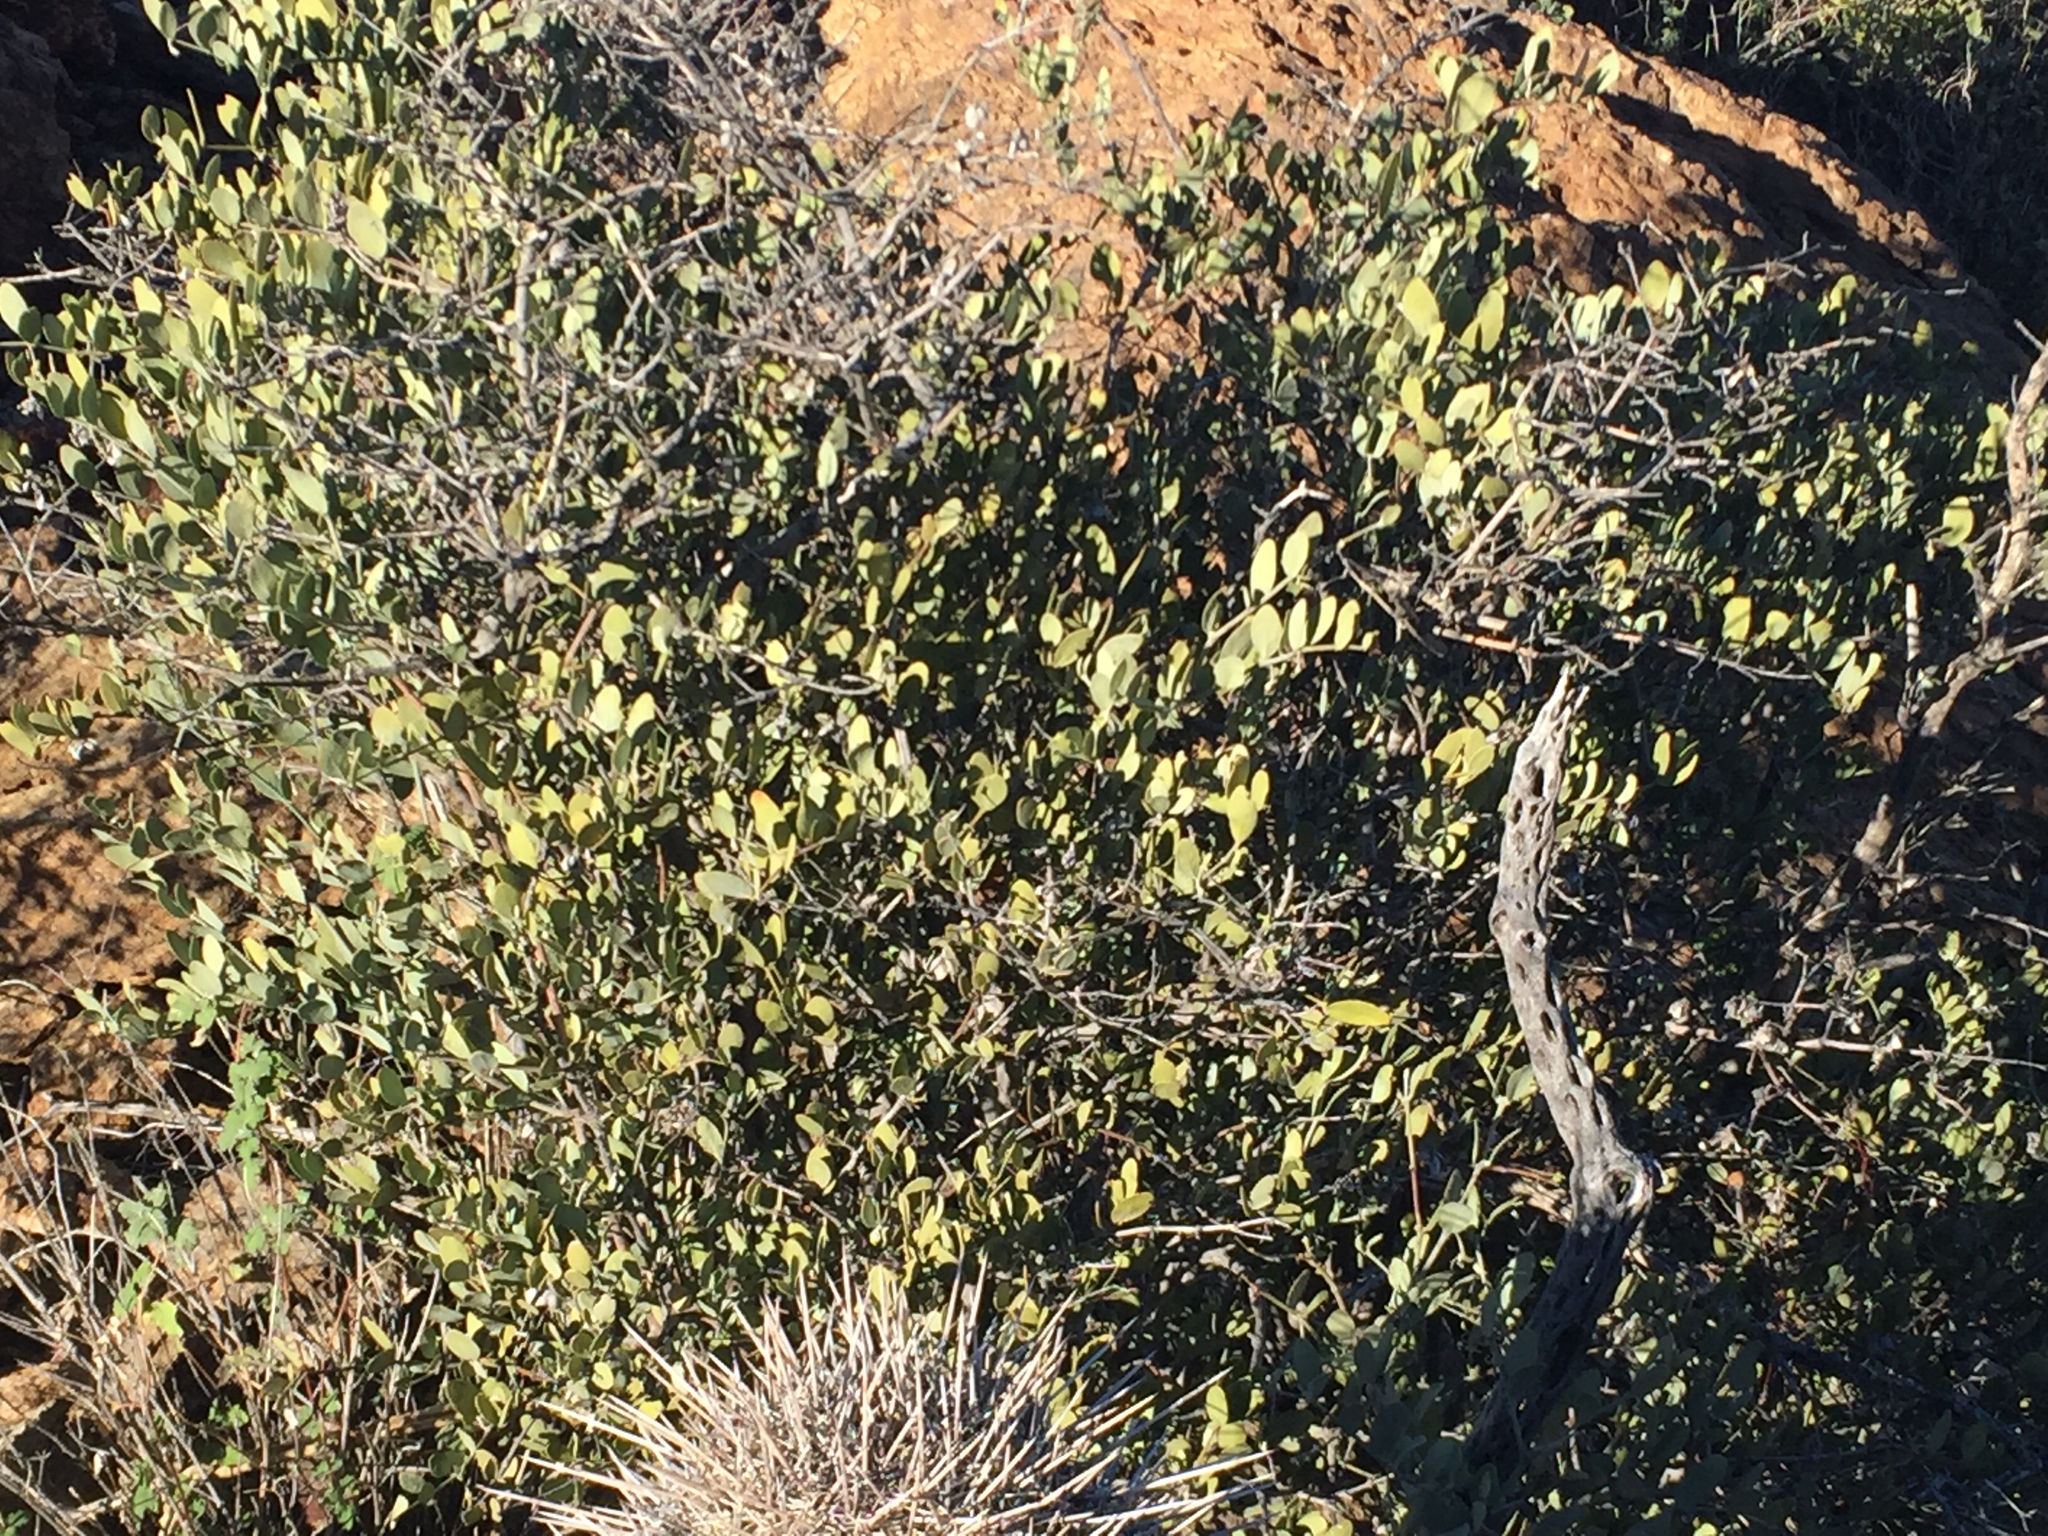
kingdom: Plantae
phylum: Tracheophyta
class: Magnoliopsida
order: Caryophyllales
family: Simmondsiaceae
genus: Simmondsia
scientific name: Simmondsia chinensis
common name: Jojoba
